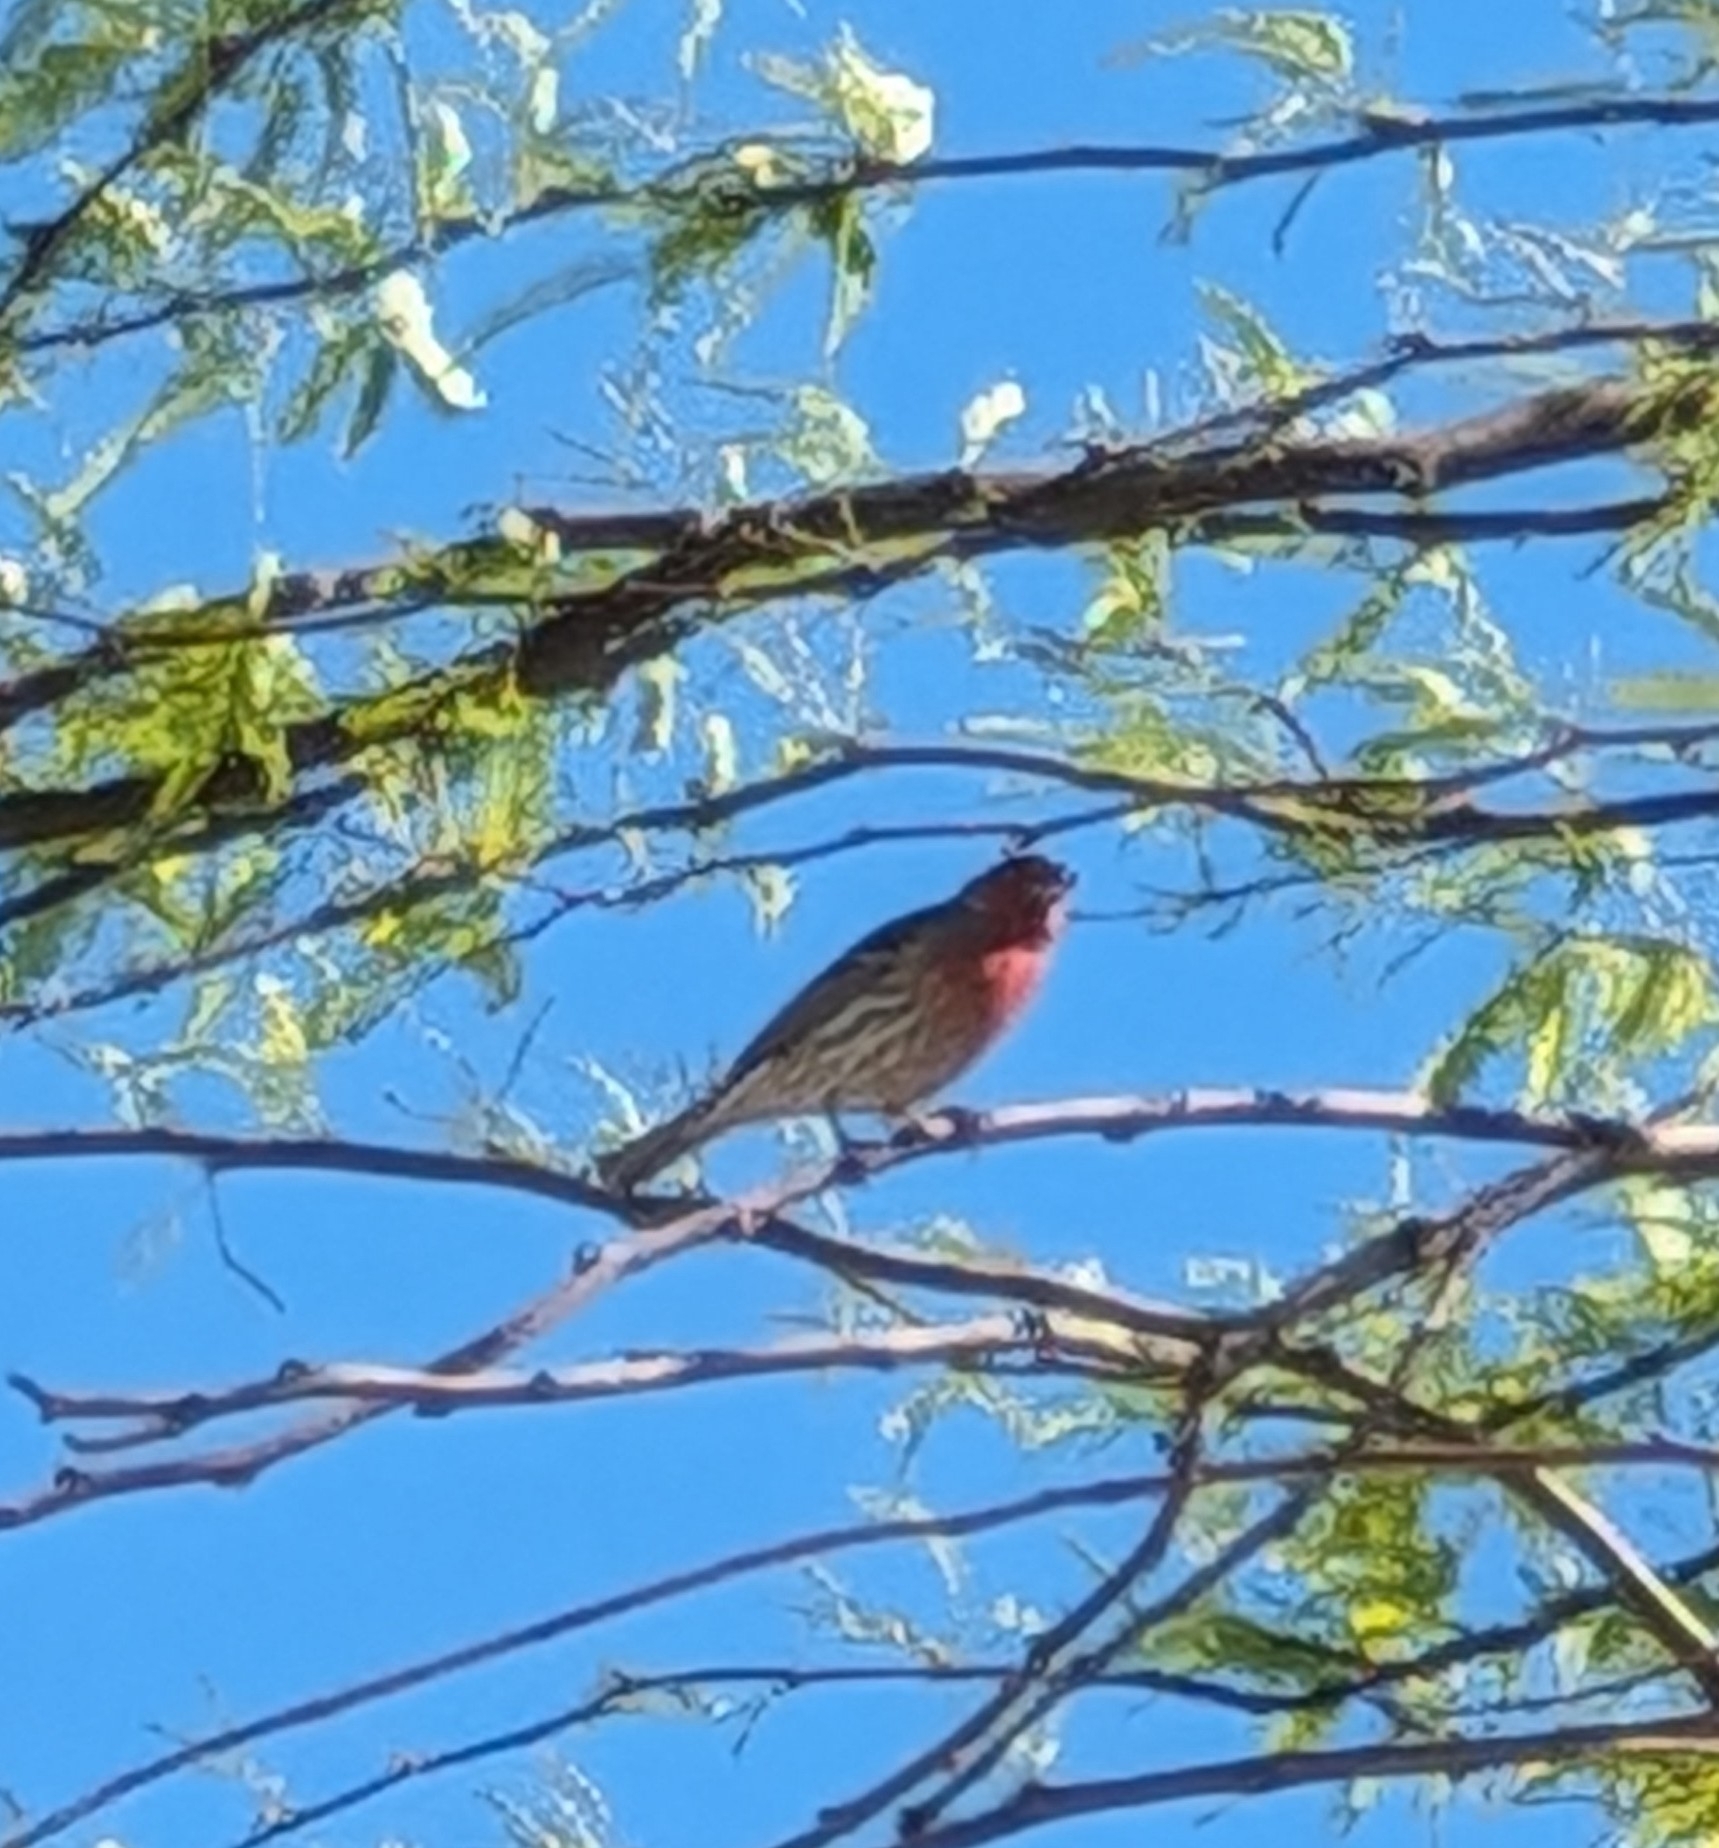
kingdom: Animalia
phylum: Chordata
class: Aves
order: Passeriformes
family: Fringillidae
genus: Haemorhous
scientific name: Haemorhous mexicanus
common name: House finch
